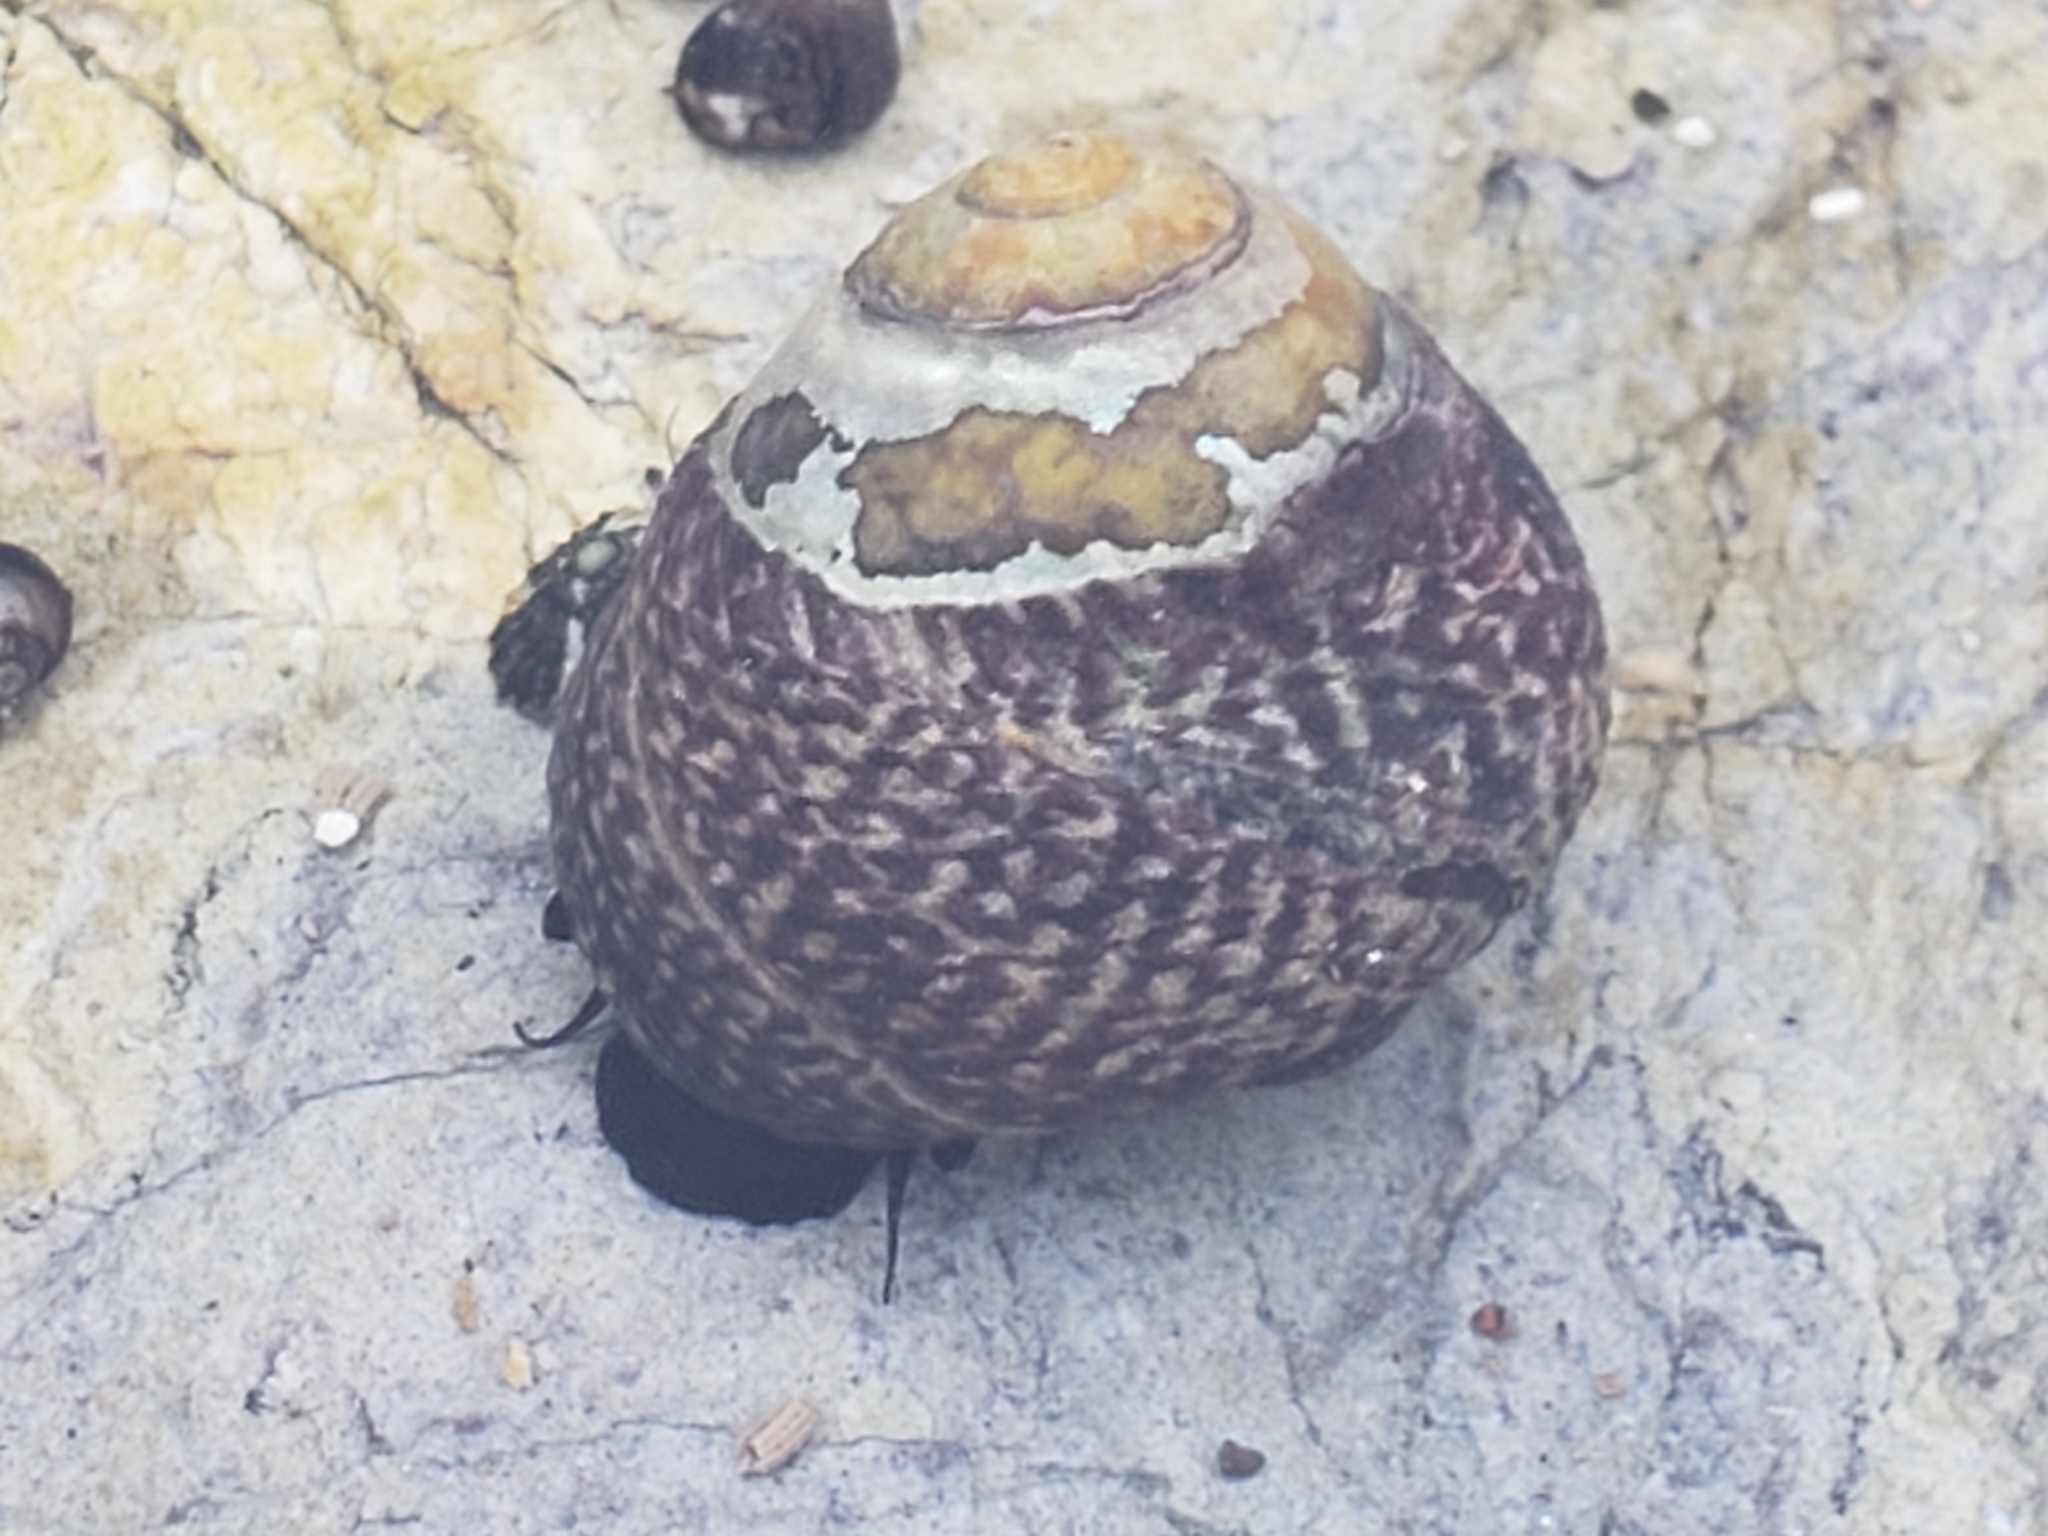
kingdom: Animalia
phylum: Mollusca
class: Gastropoda
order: Trochida
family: Tegulidae
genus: Tegula
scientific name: Tegula gallina
